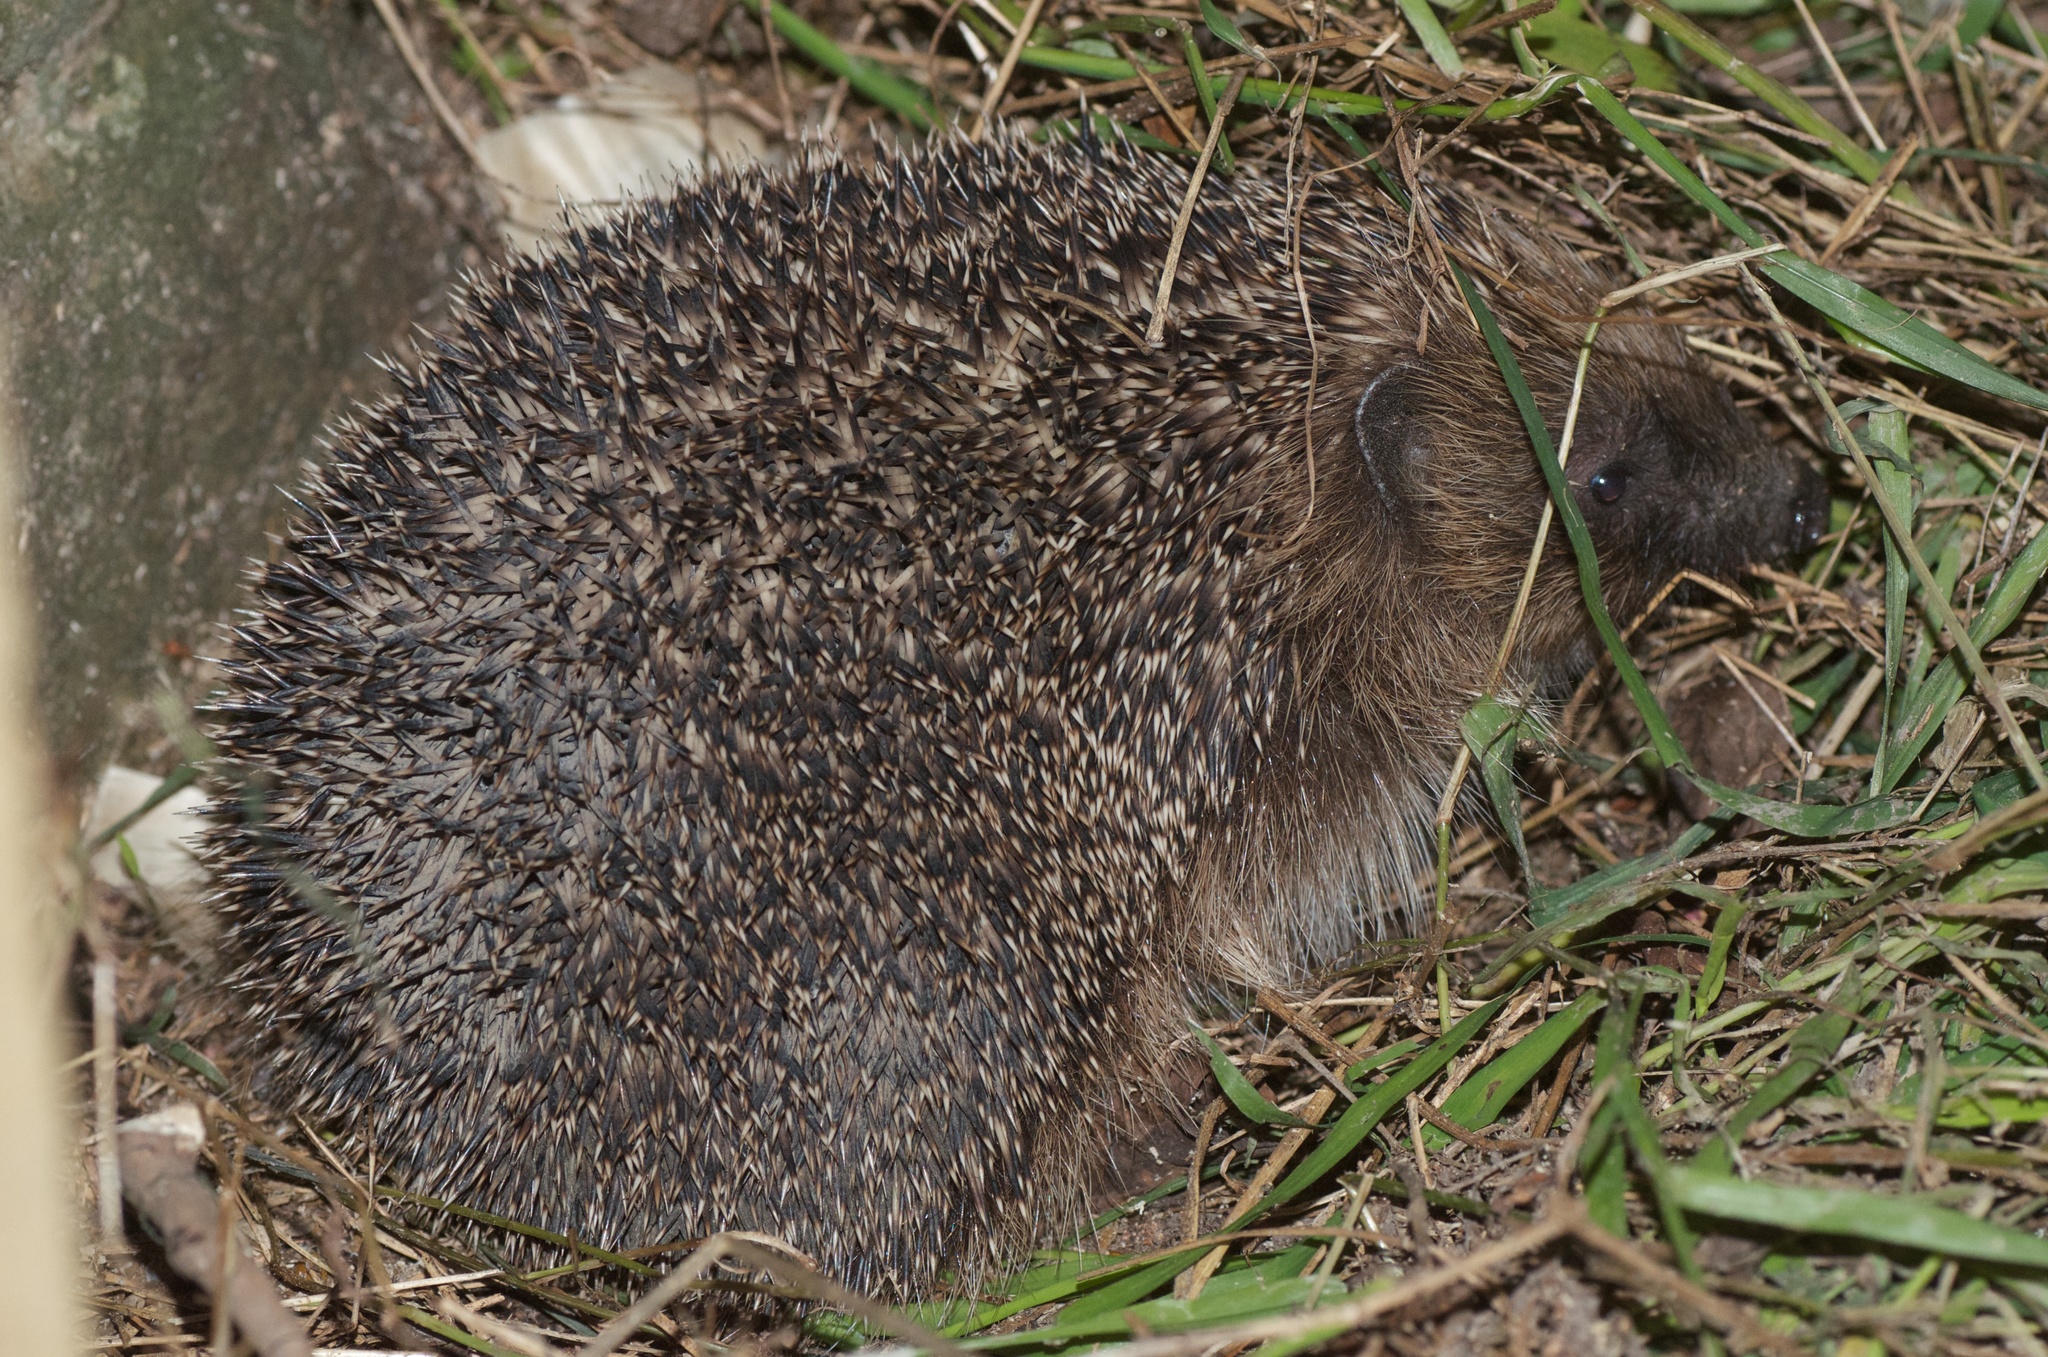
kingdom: Animalia
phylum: Chordata
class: Mammalia
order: Erinaceomorpha
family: Erinaceidae
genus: Erinaceus
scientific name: Erinaceus europaeus
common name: West european hedgehog
